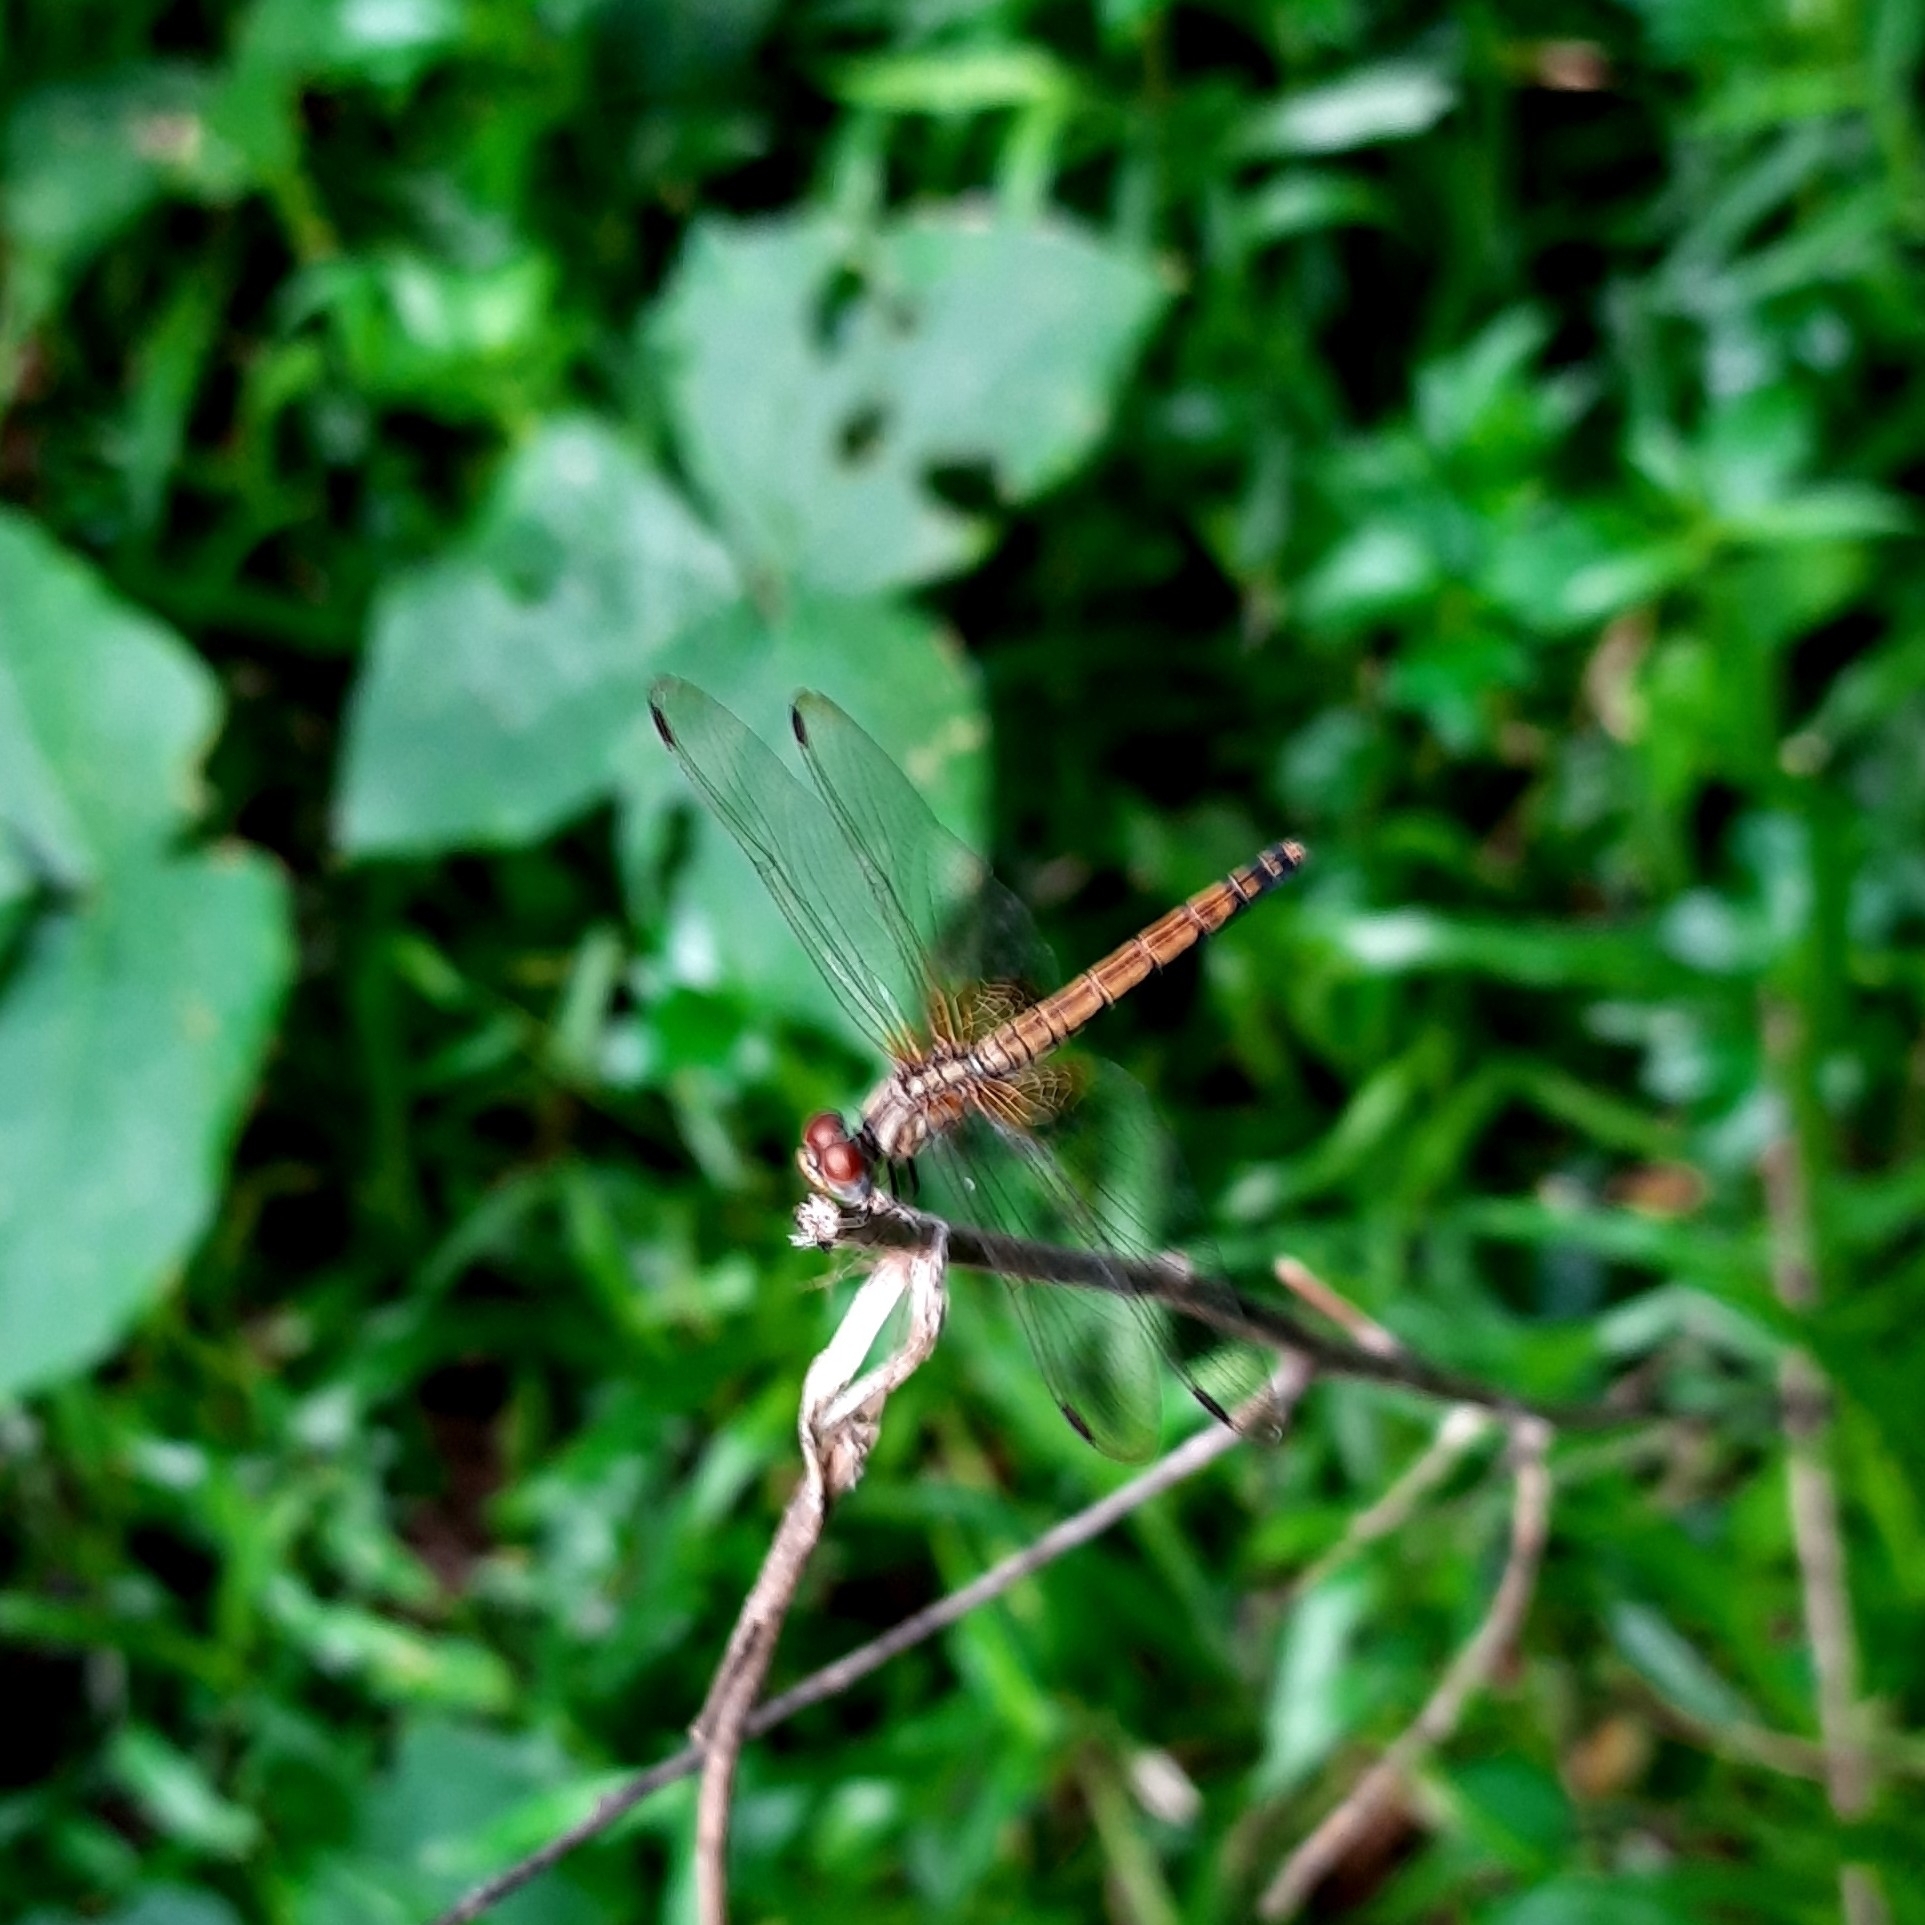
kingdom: Animalia
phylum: Arthropoda
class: Insecta
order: Odonata
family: Libellulidae
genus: Trithemis
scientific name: Trithemis aurora
